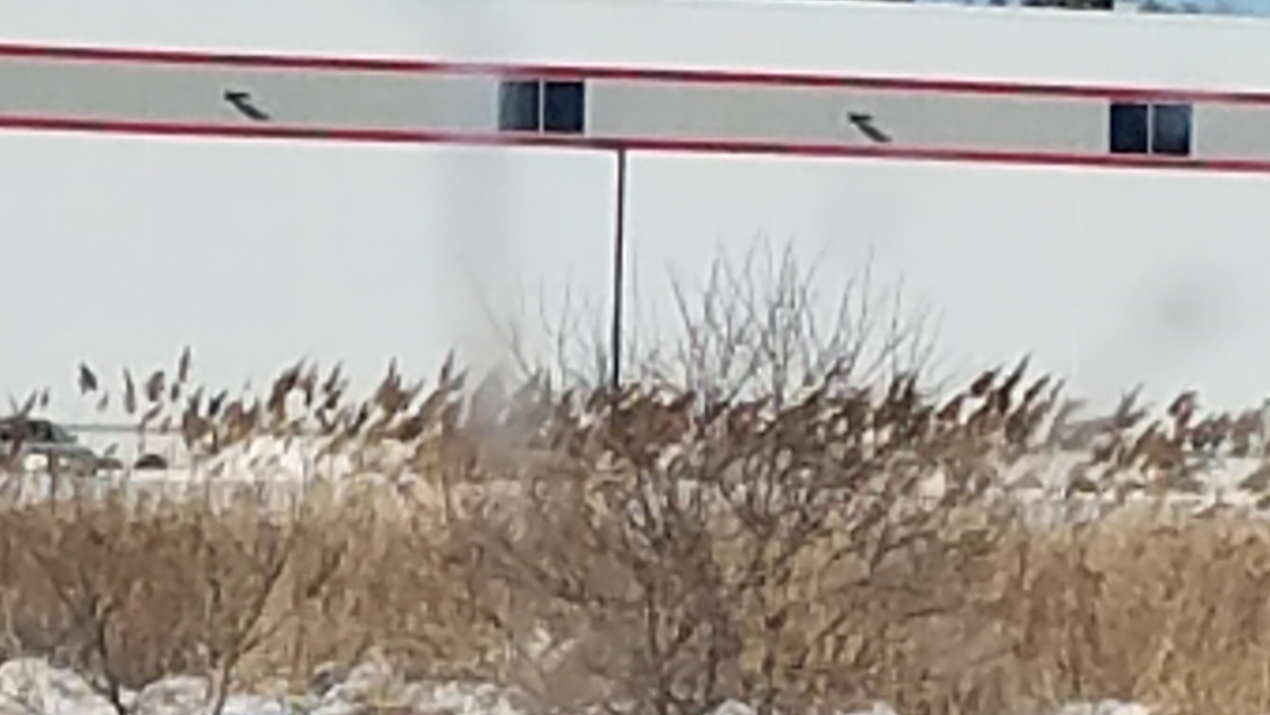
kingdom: Plantae
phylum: Tracheophyta
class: Liliopsida
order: Poales
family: Poaceae
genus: Phragmites
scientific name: Phragmites australis
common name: Common reed
